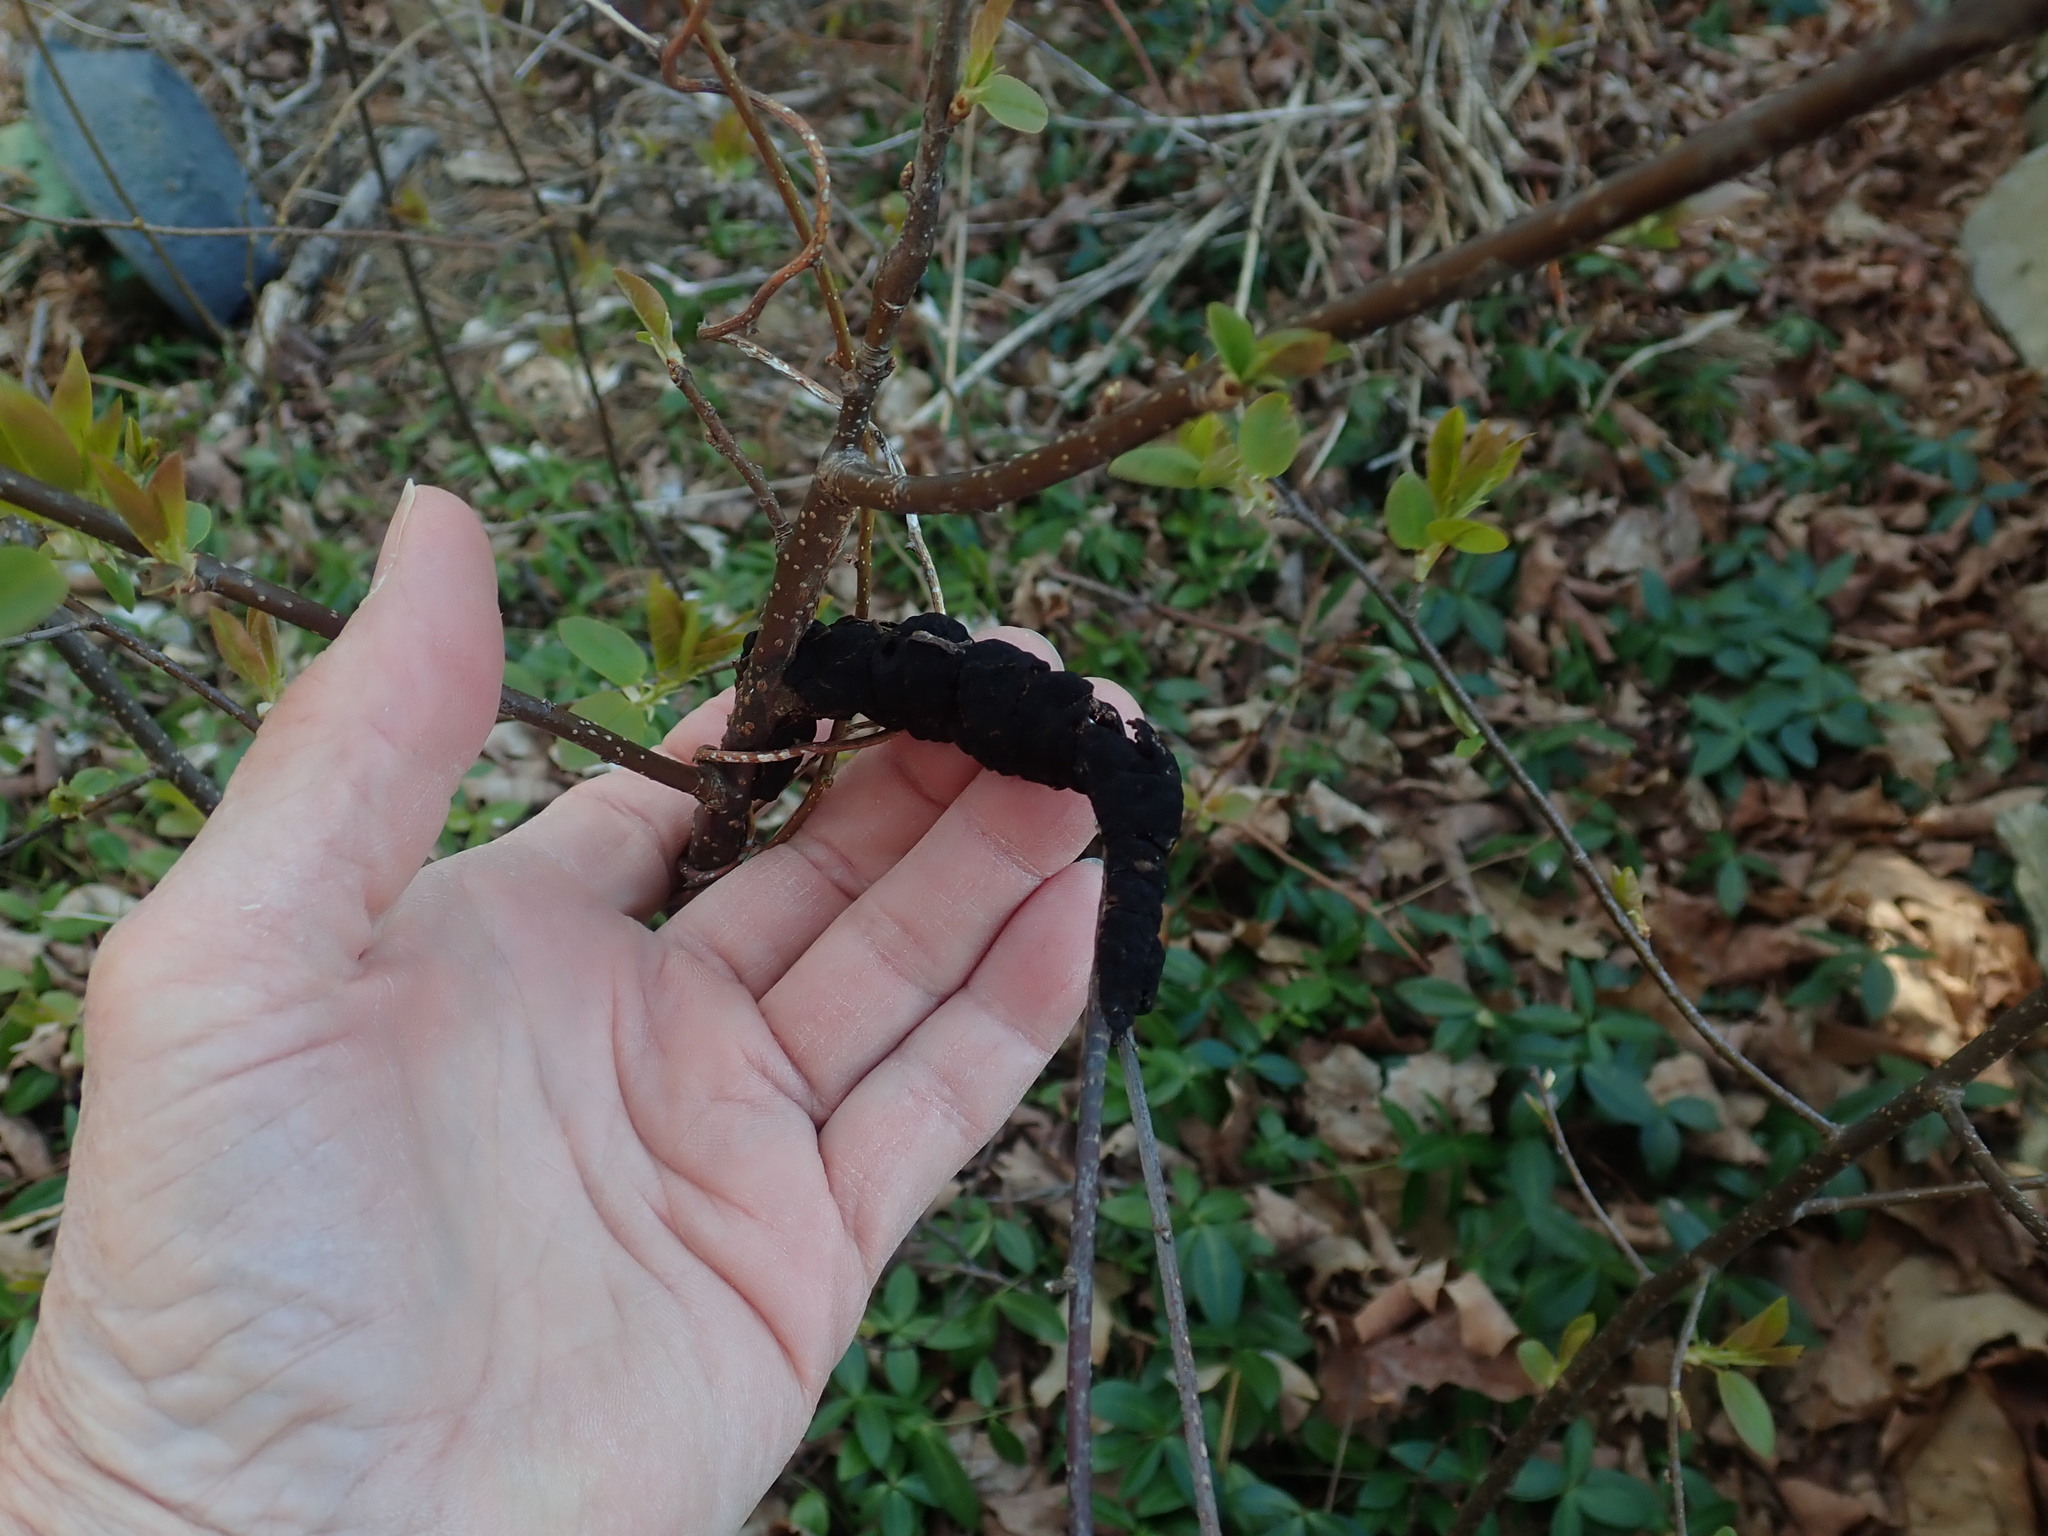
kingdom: Fungi
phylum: Ascomycota
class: Dothideomycetes
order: Venturiales
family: Venturiaceae
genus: Apiosporina
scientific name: Apiosporina morbosa
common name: Black knot
